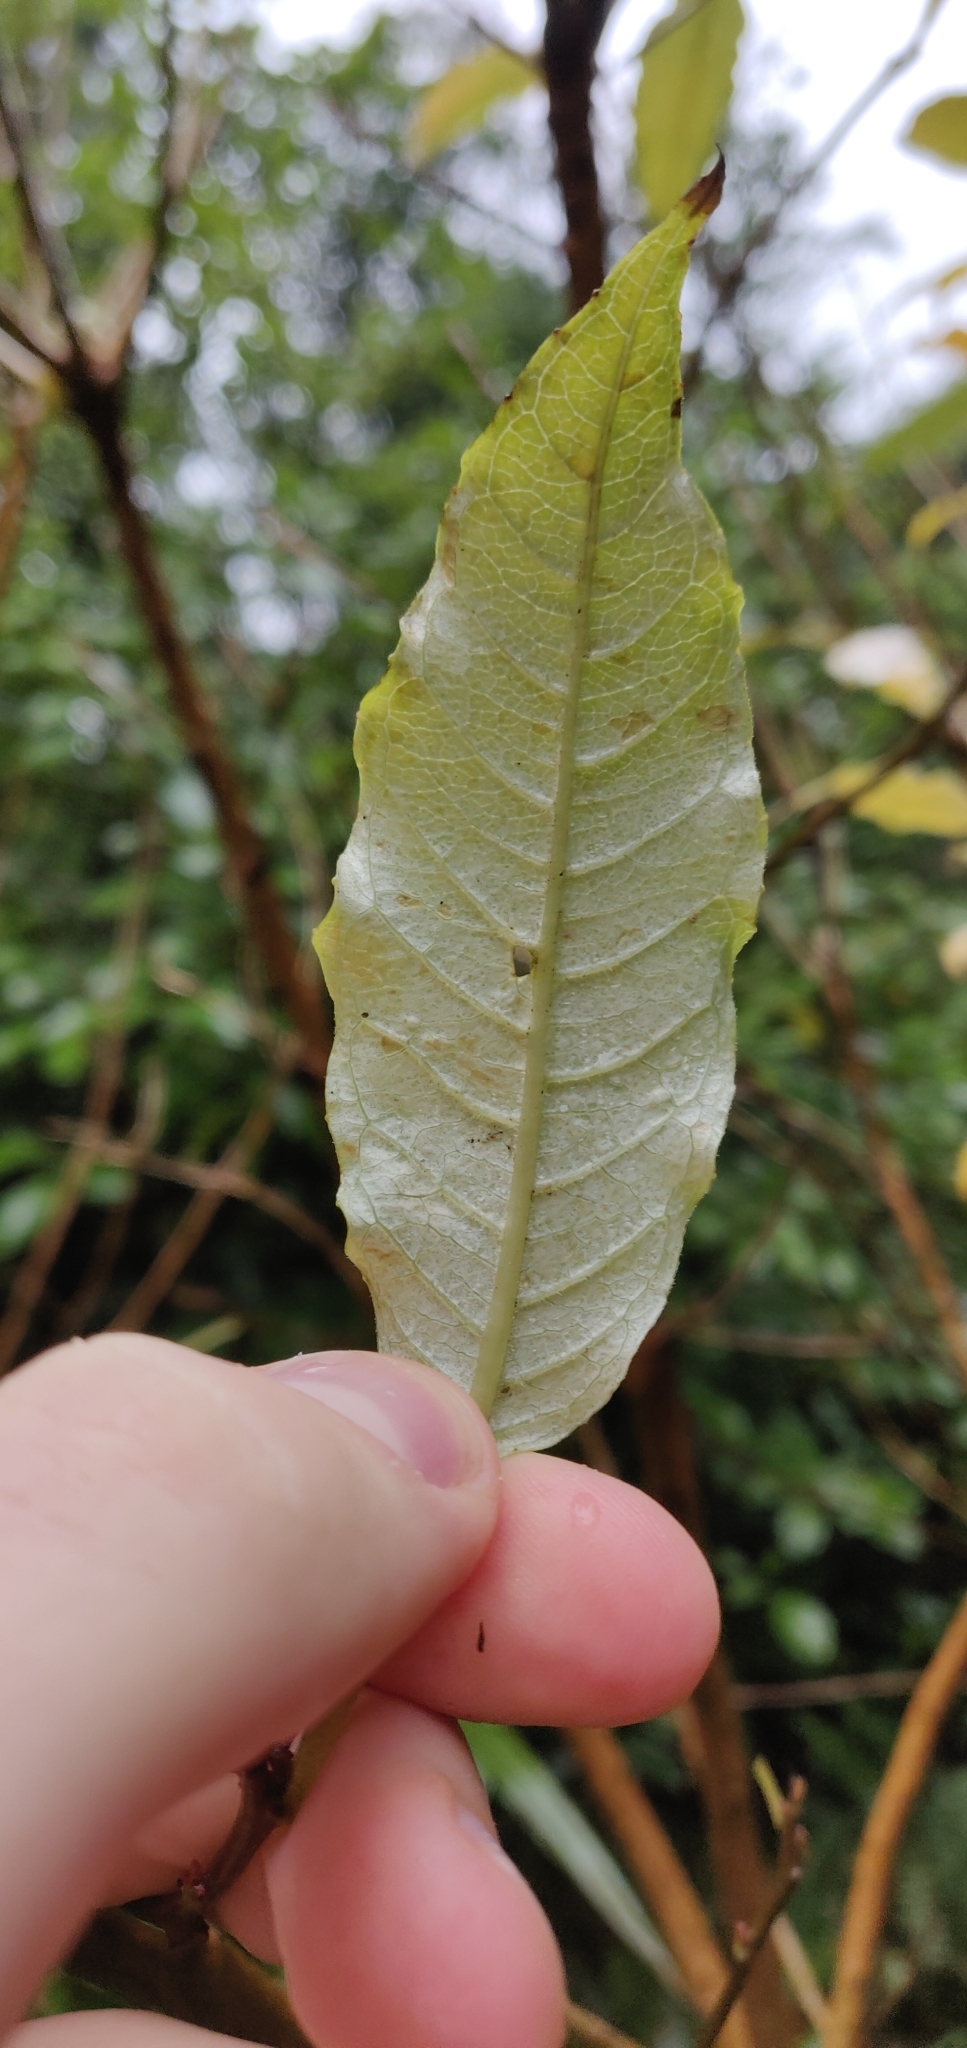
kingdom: Plantae
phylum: Tracheophyta
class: Magnoliopsida
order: Myrtales
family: Onagraceae
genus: Fuchsia
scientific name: Fuchsia excorticata
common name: Tree fuchsia
